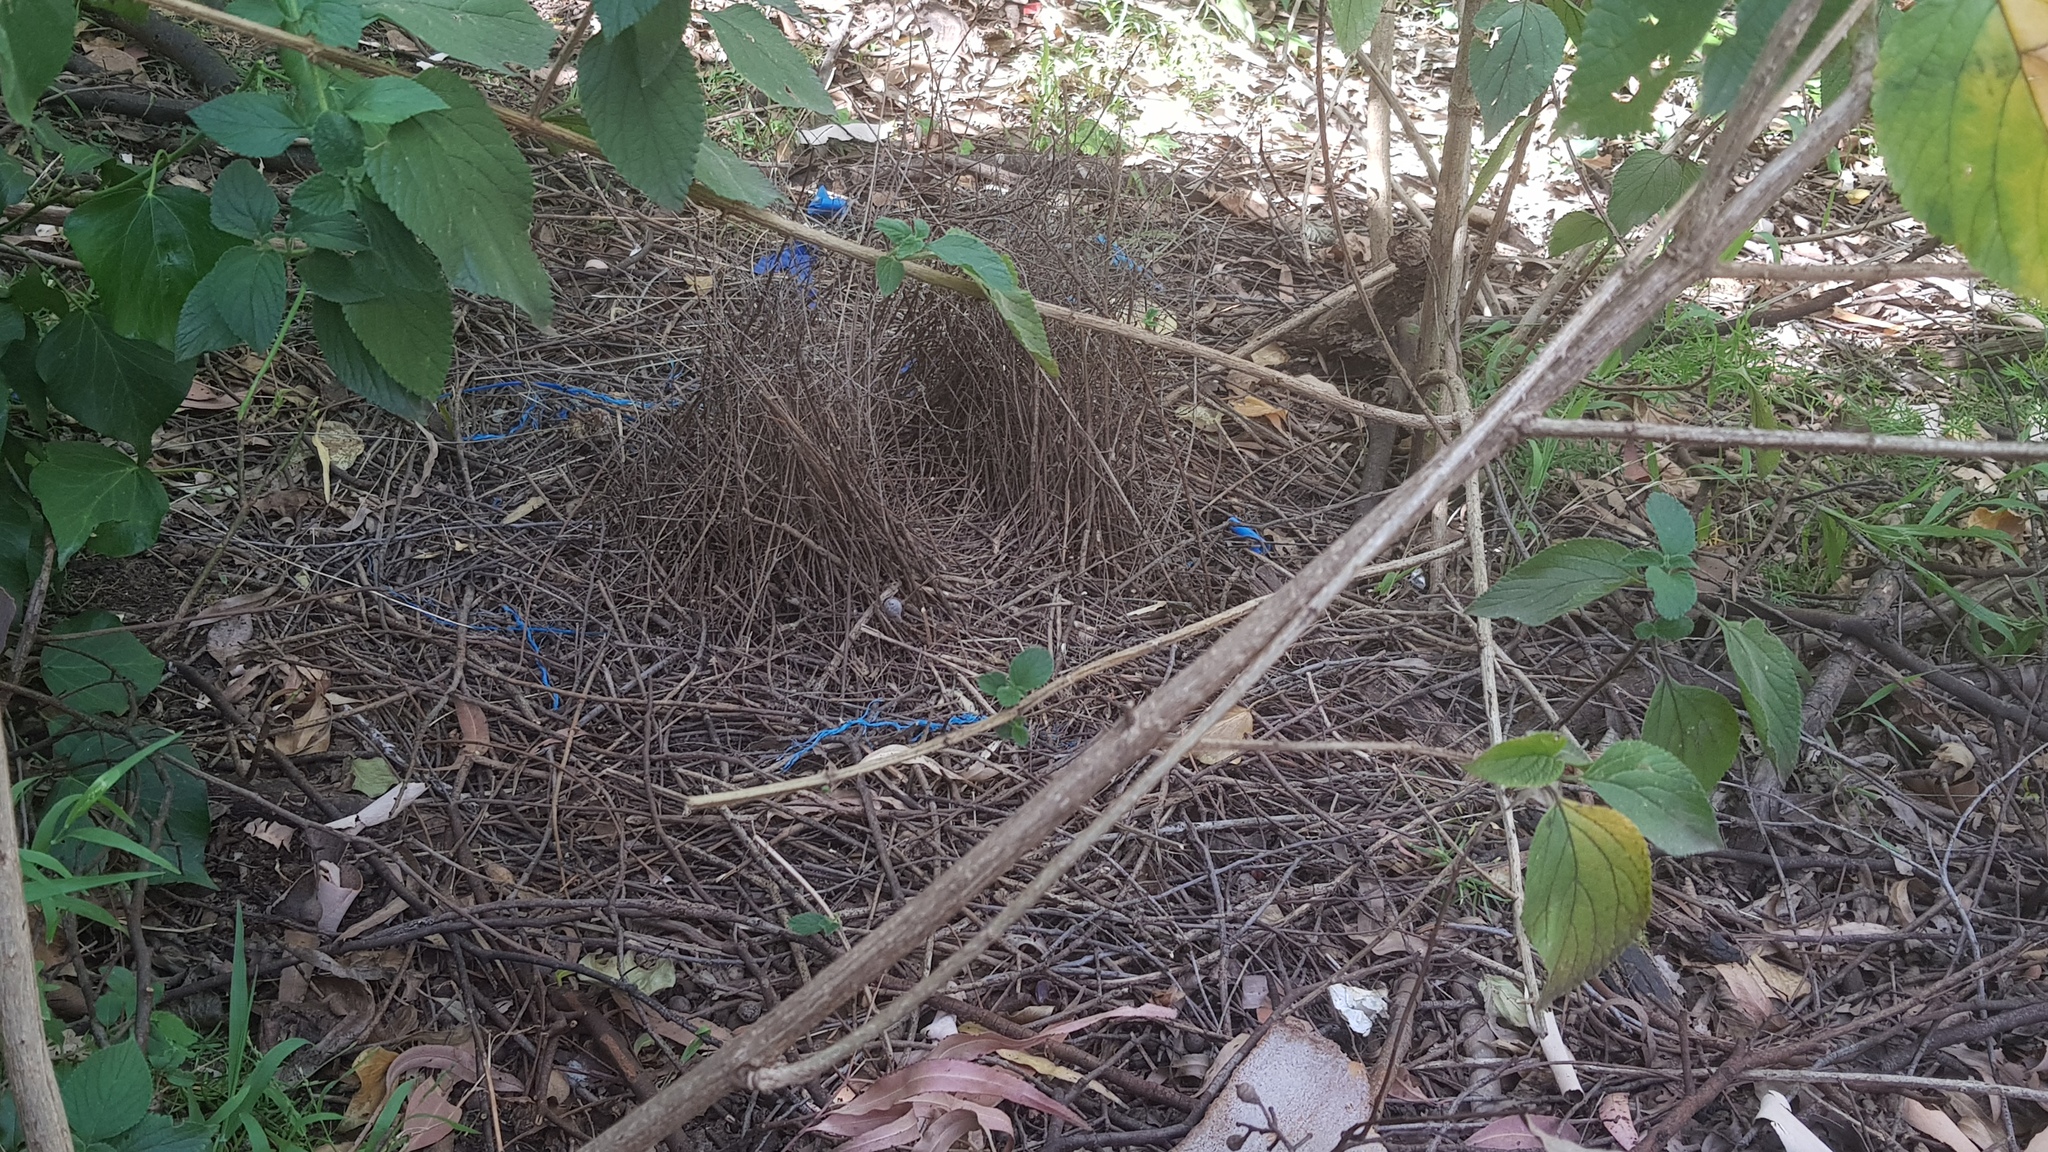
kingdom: Animalia
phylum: Chordata
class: Aves
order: Passeriformes
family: Ptilonorhynchidae
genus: Ptilonorhynchus
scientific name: Ptilonorhynchus violaceus
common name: Satin bowerbird
